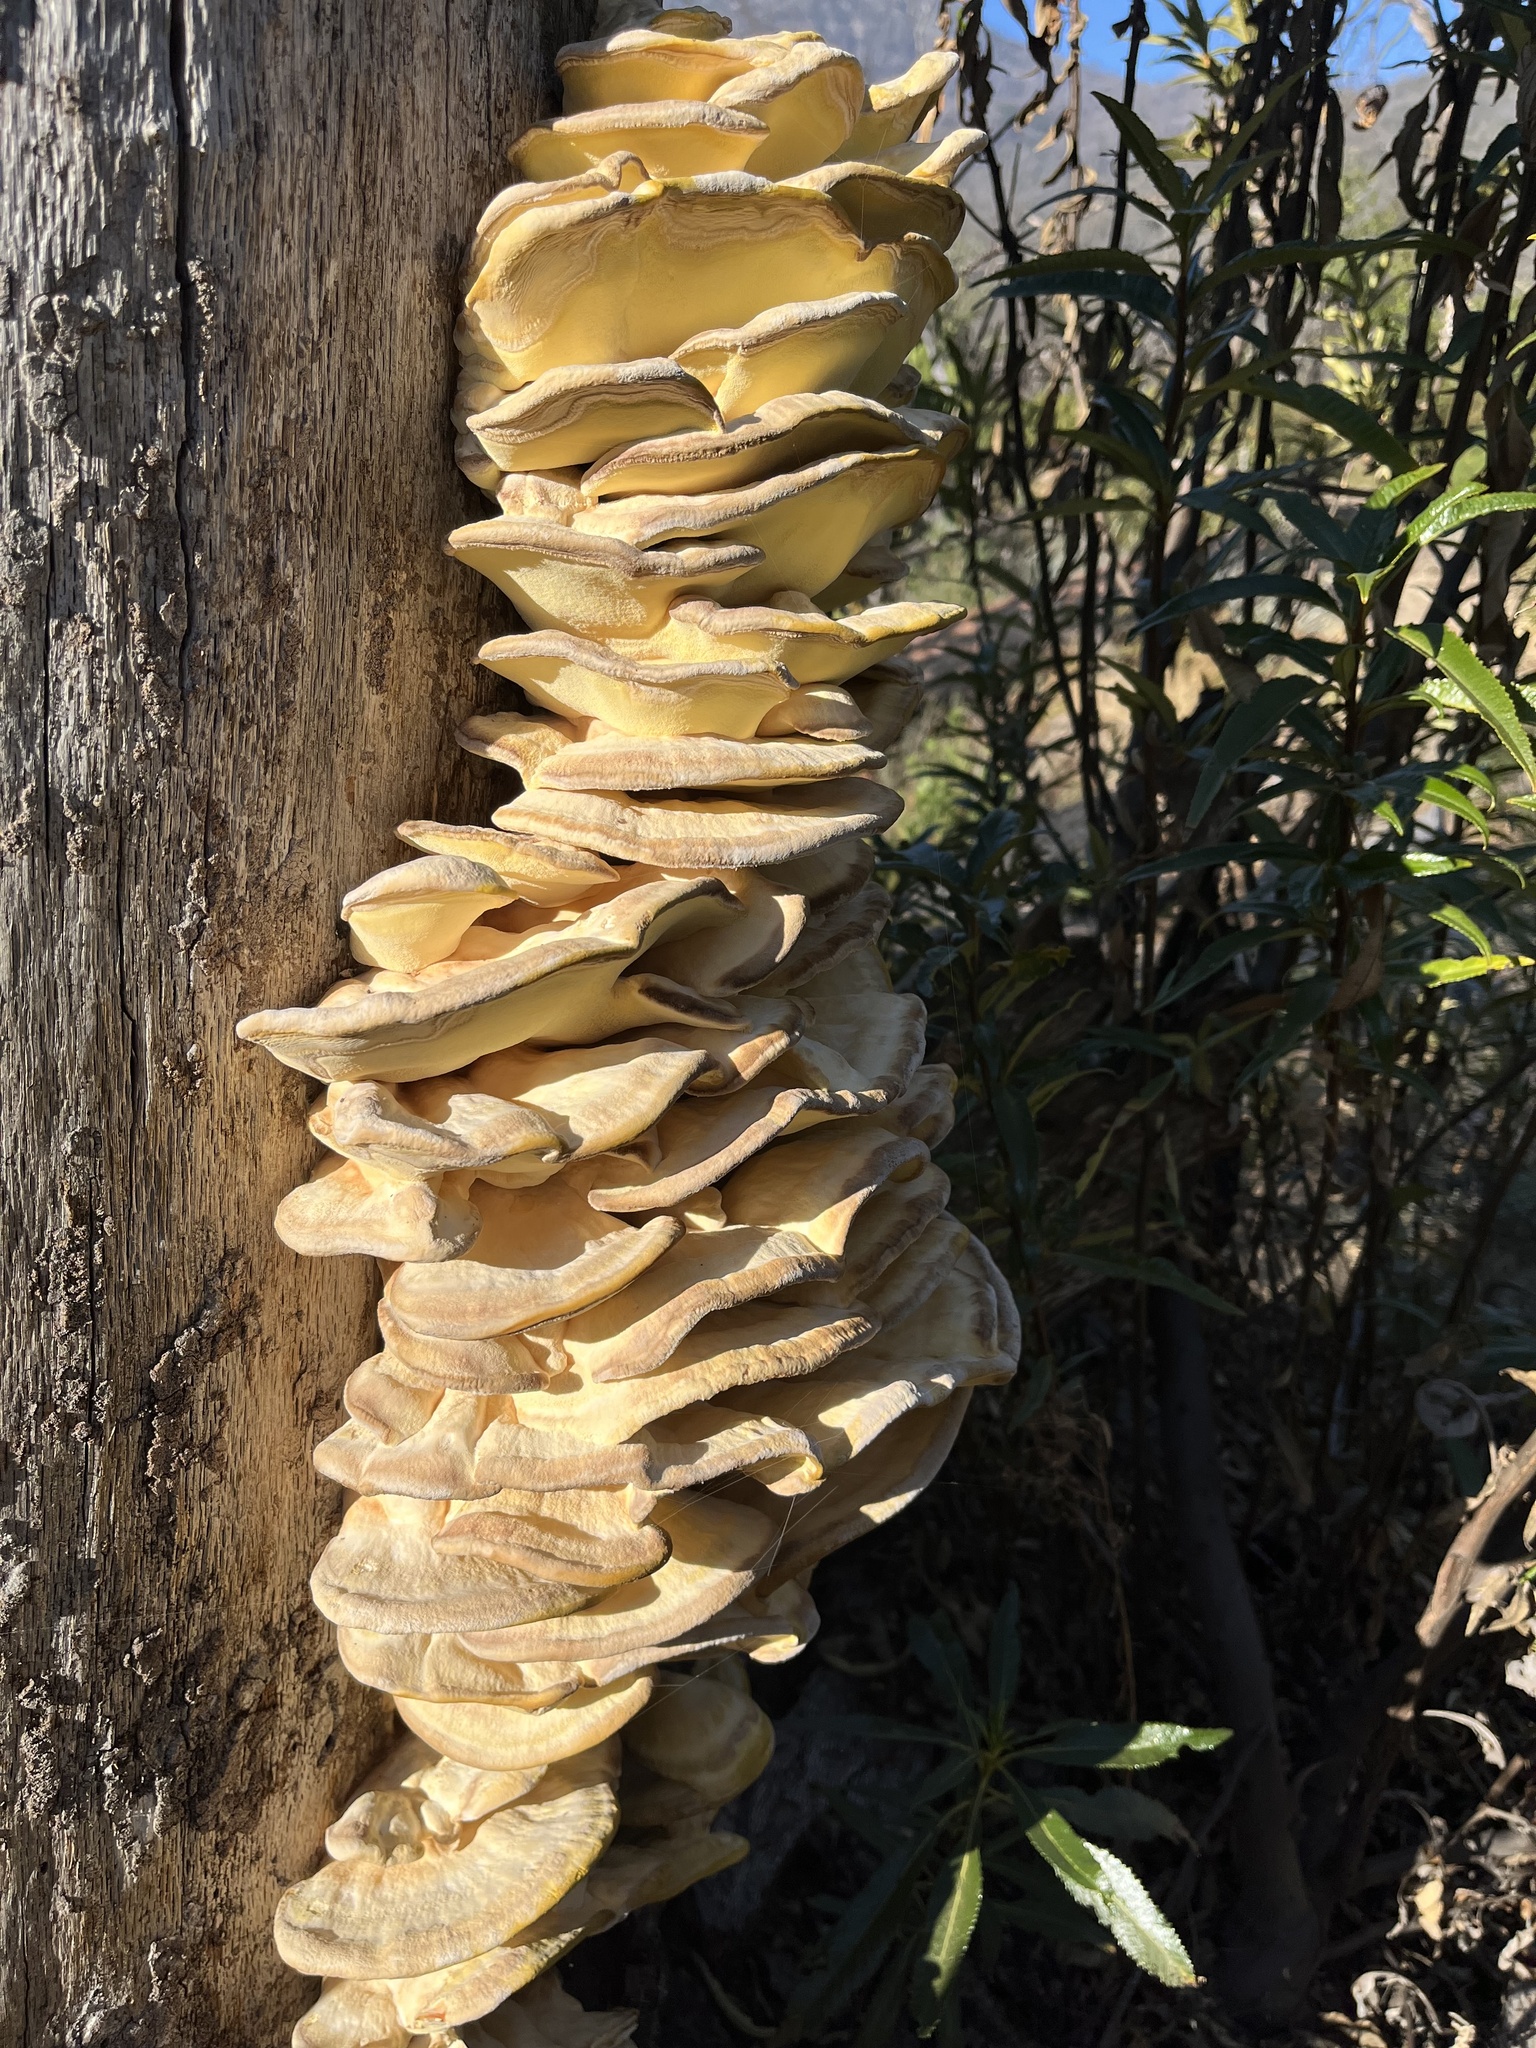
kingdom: Fungi
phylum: Basidiomycota
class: Agaricomycetes
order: Polyporales
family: Laetiporaceae
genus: Laetiporus
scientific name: Laetiporus gilbertsonii
